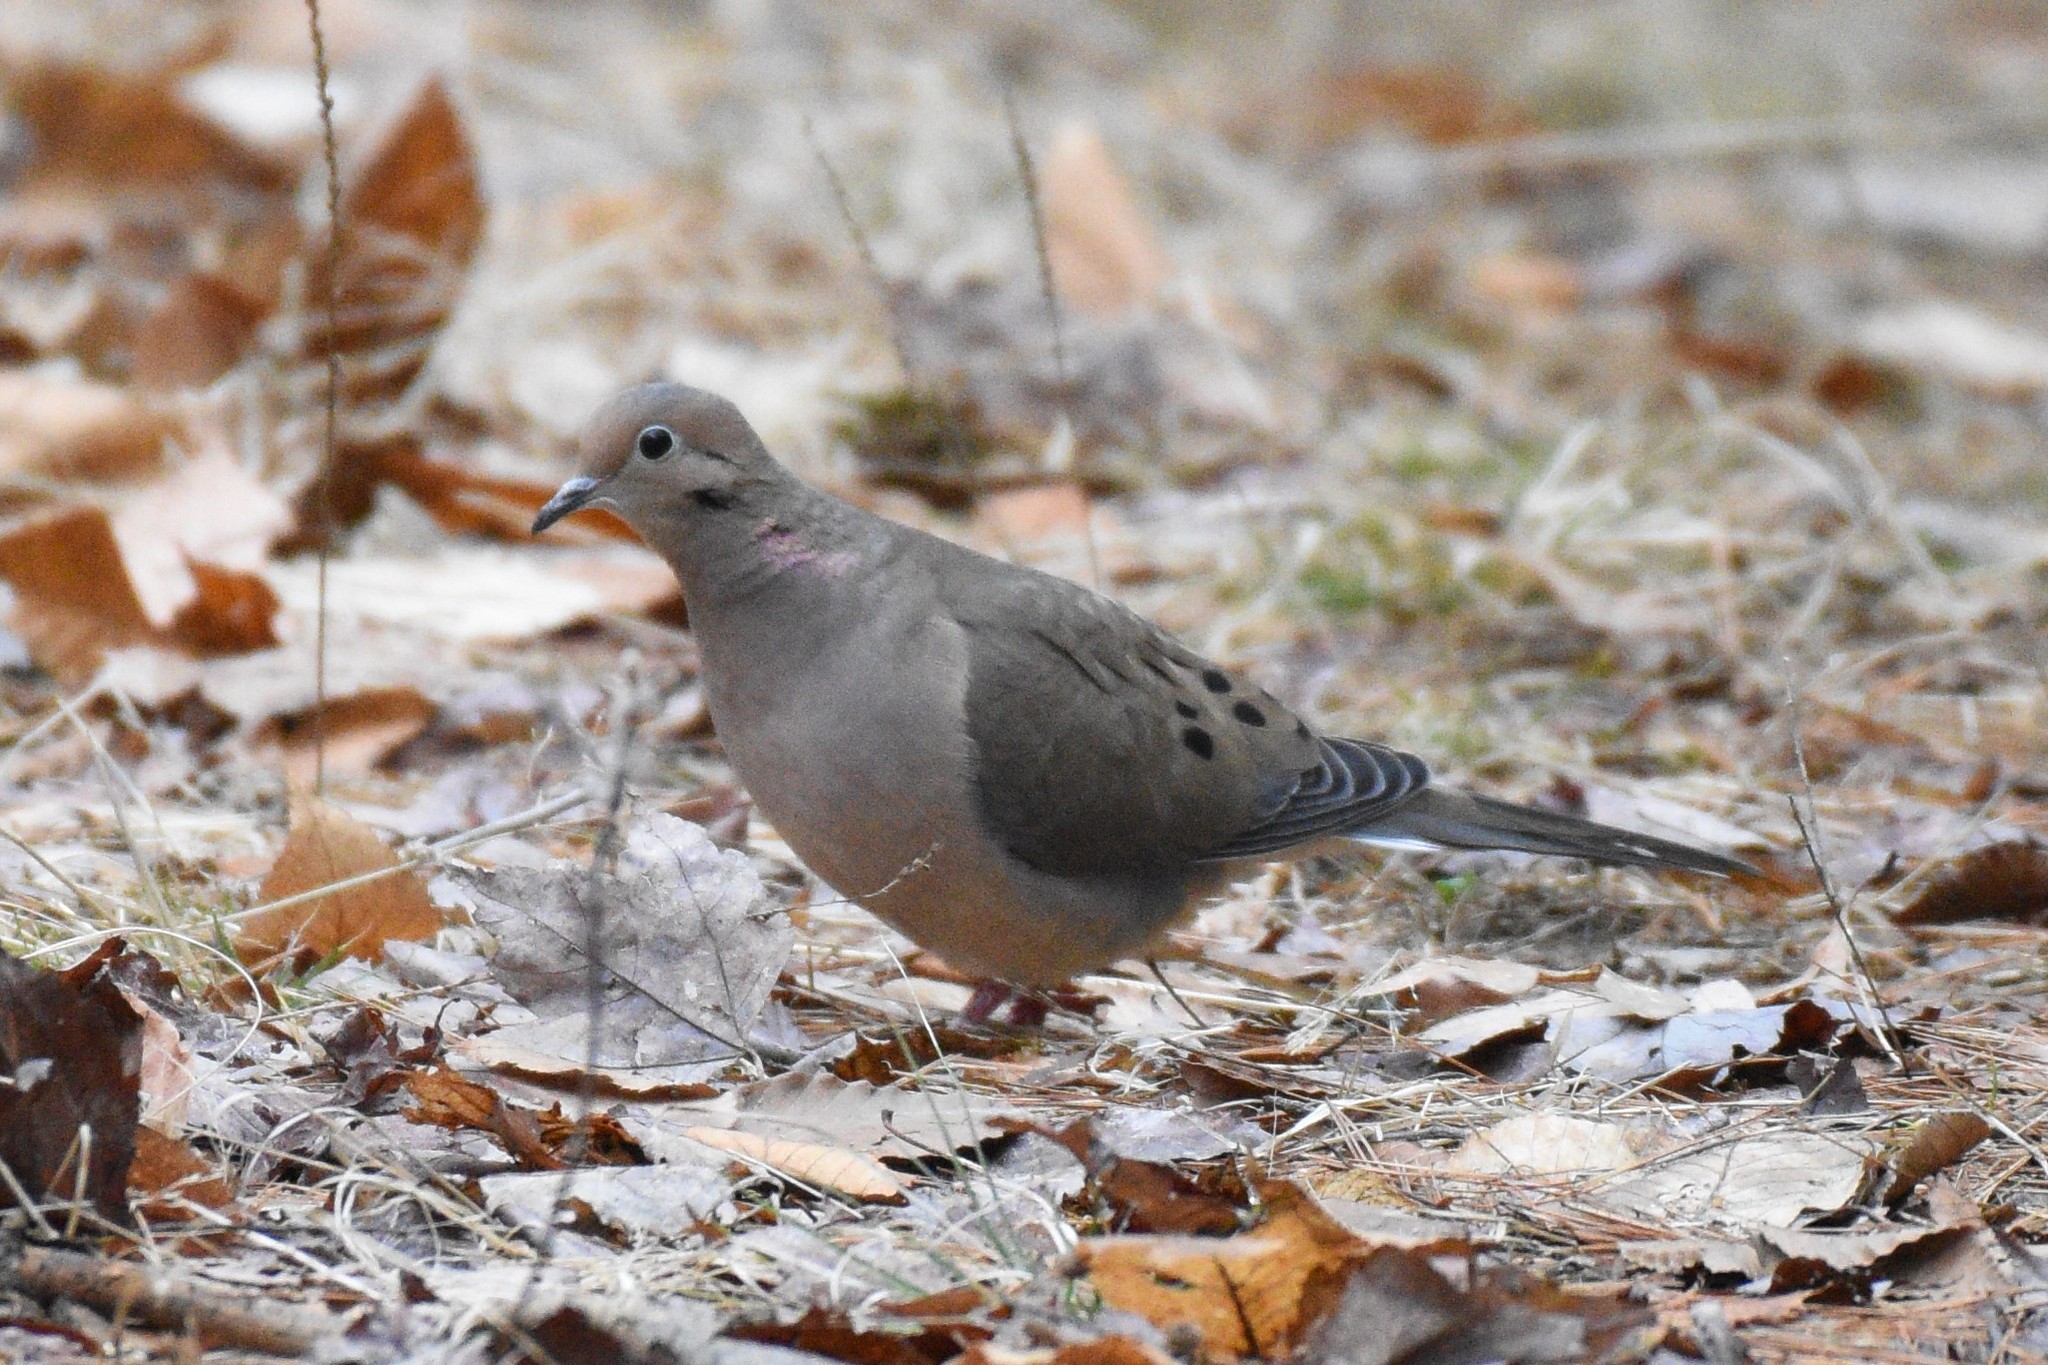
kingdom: Animalia
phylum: Chordata
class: Aves
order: Columbiformes
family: Columbidae
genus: Zenaida
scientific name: Zenaida macroura
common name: Mourning dove
